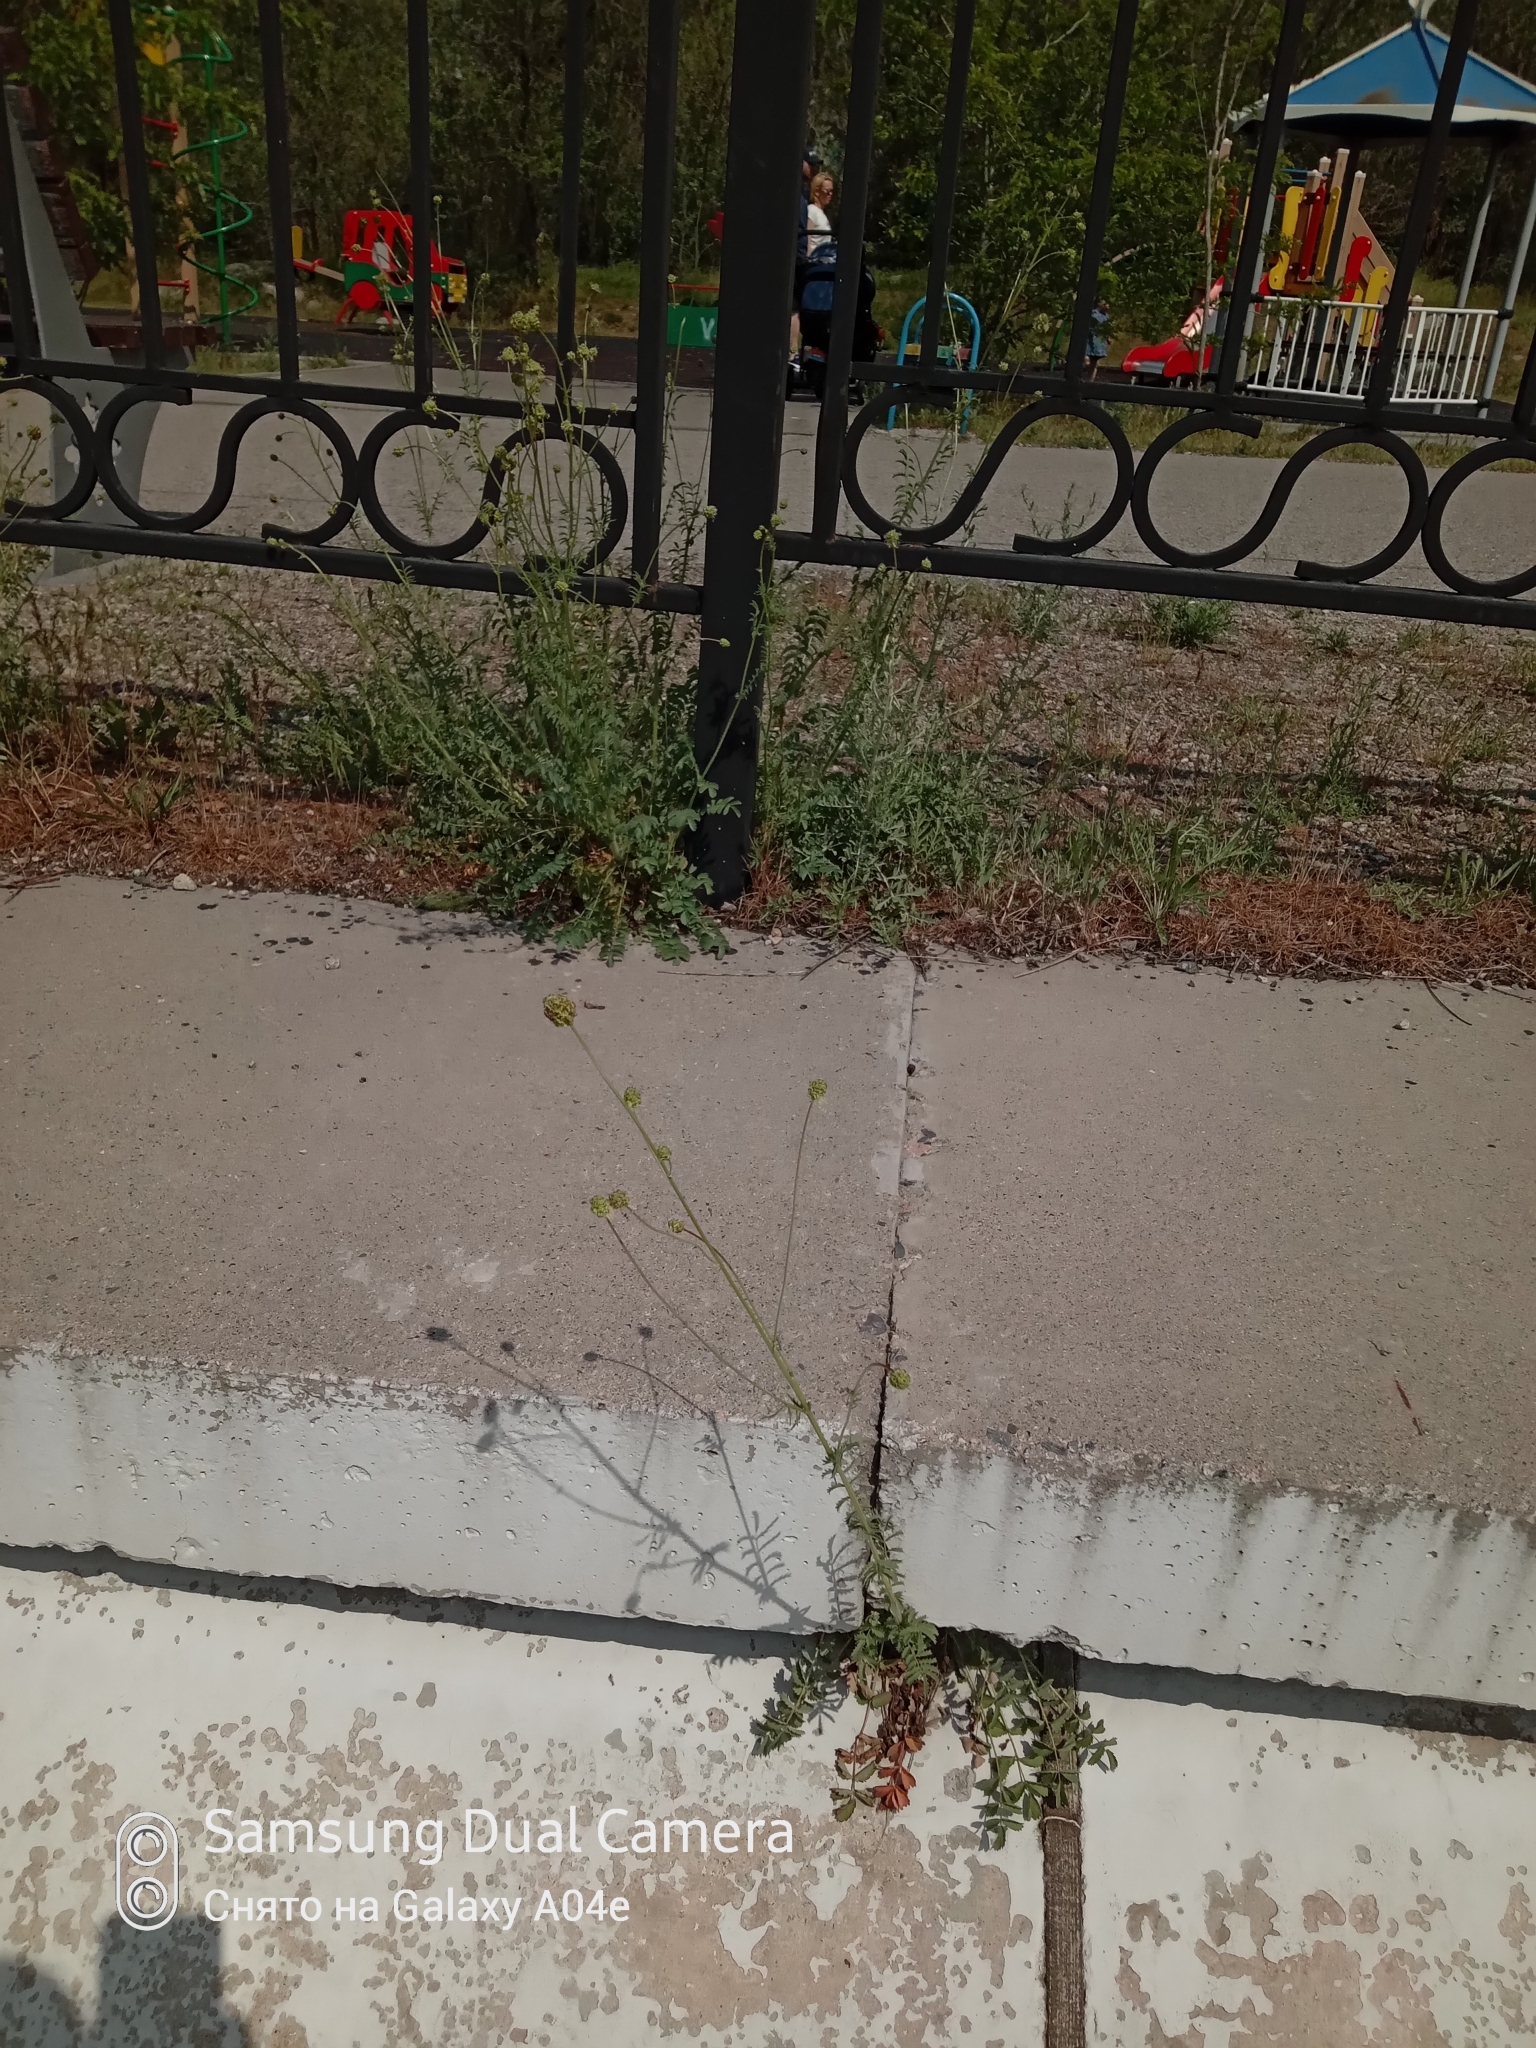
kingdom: Plantae
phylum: Tracheophyta
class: Magnoliopsida
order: Rosales
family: Rosaceae
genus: Poterium
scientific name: Poterium sanguisorba
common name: Salad burnet
